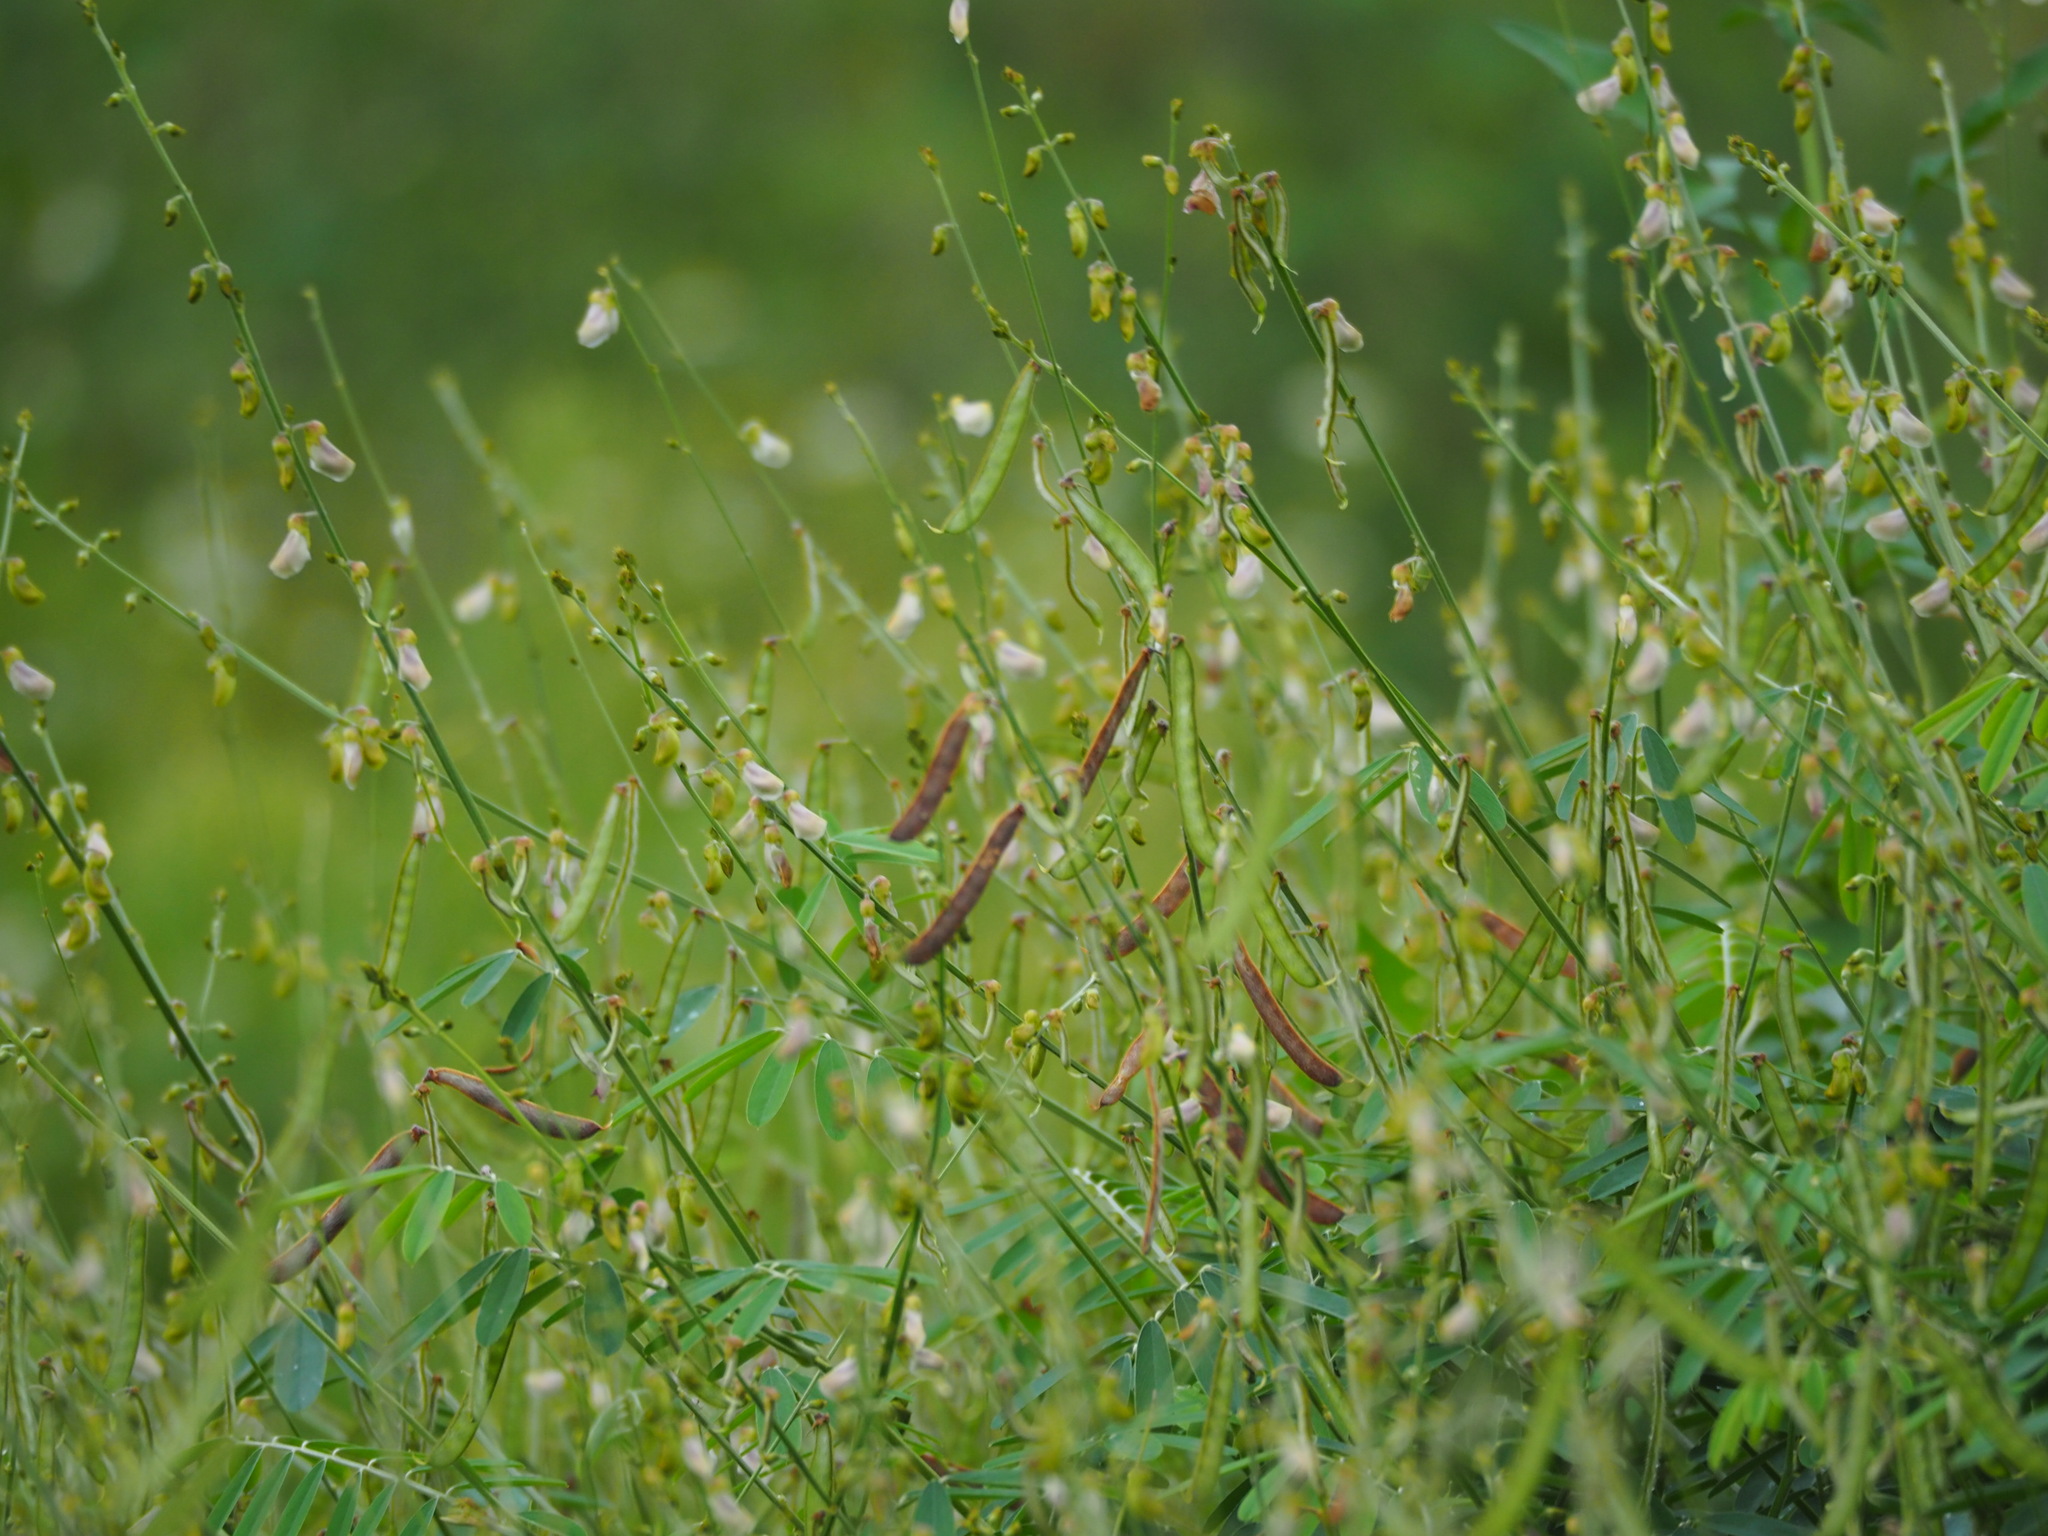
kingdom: Plantae
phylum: Tracheophyta
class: Magnoliopsida
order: Fabales
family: Fabaceae
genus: Tephrosia
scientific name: Tephrosia noctiflora
